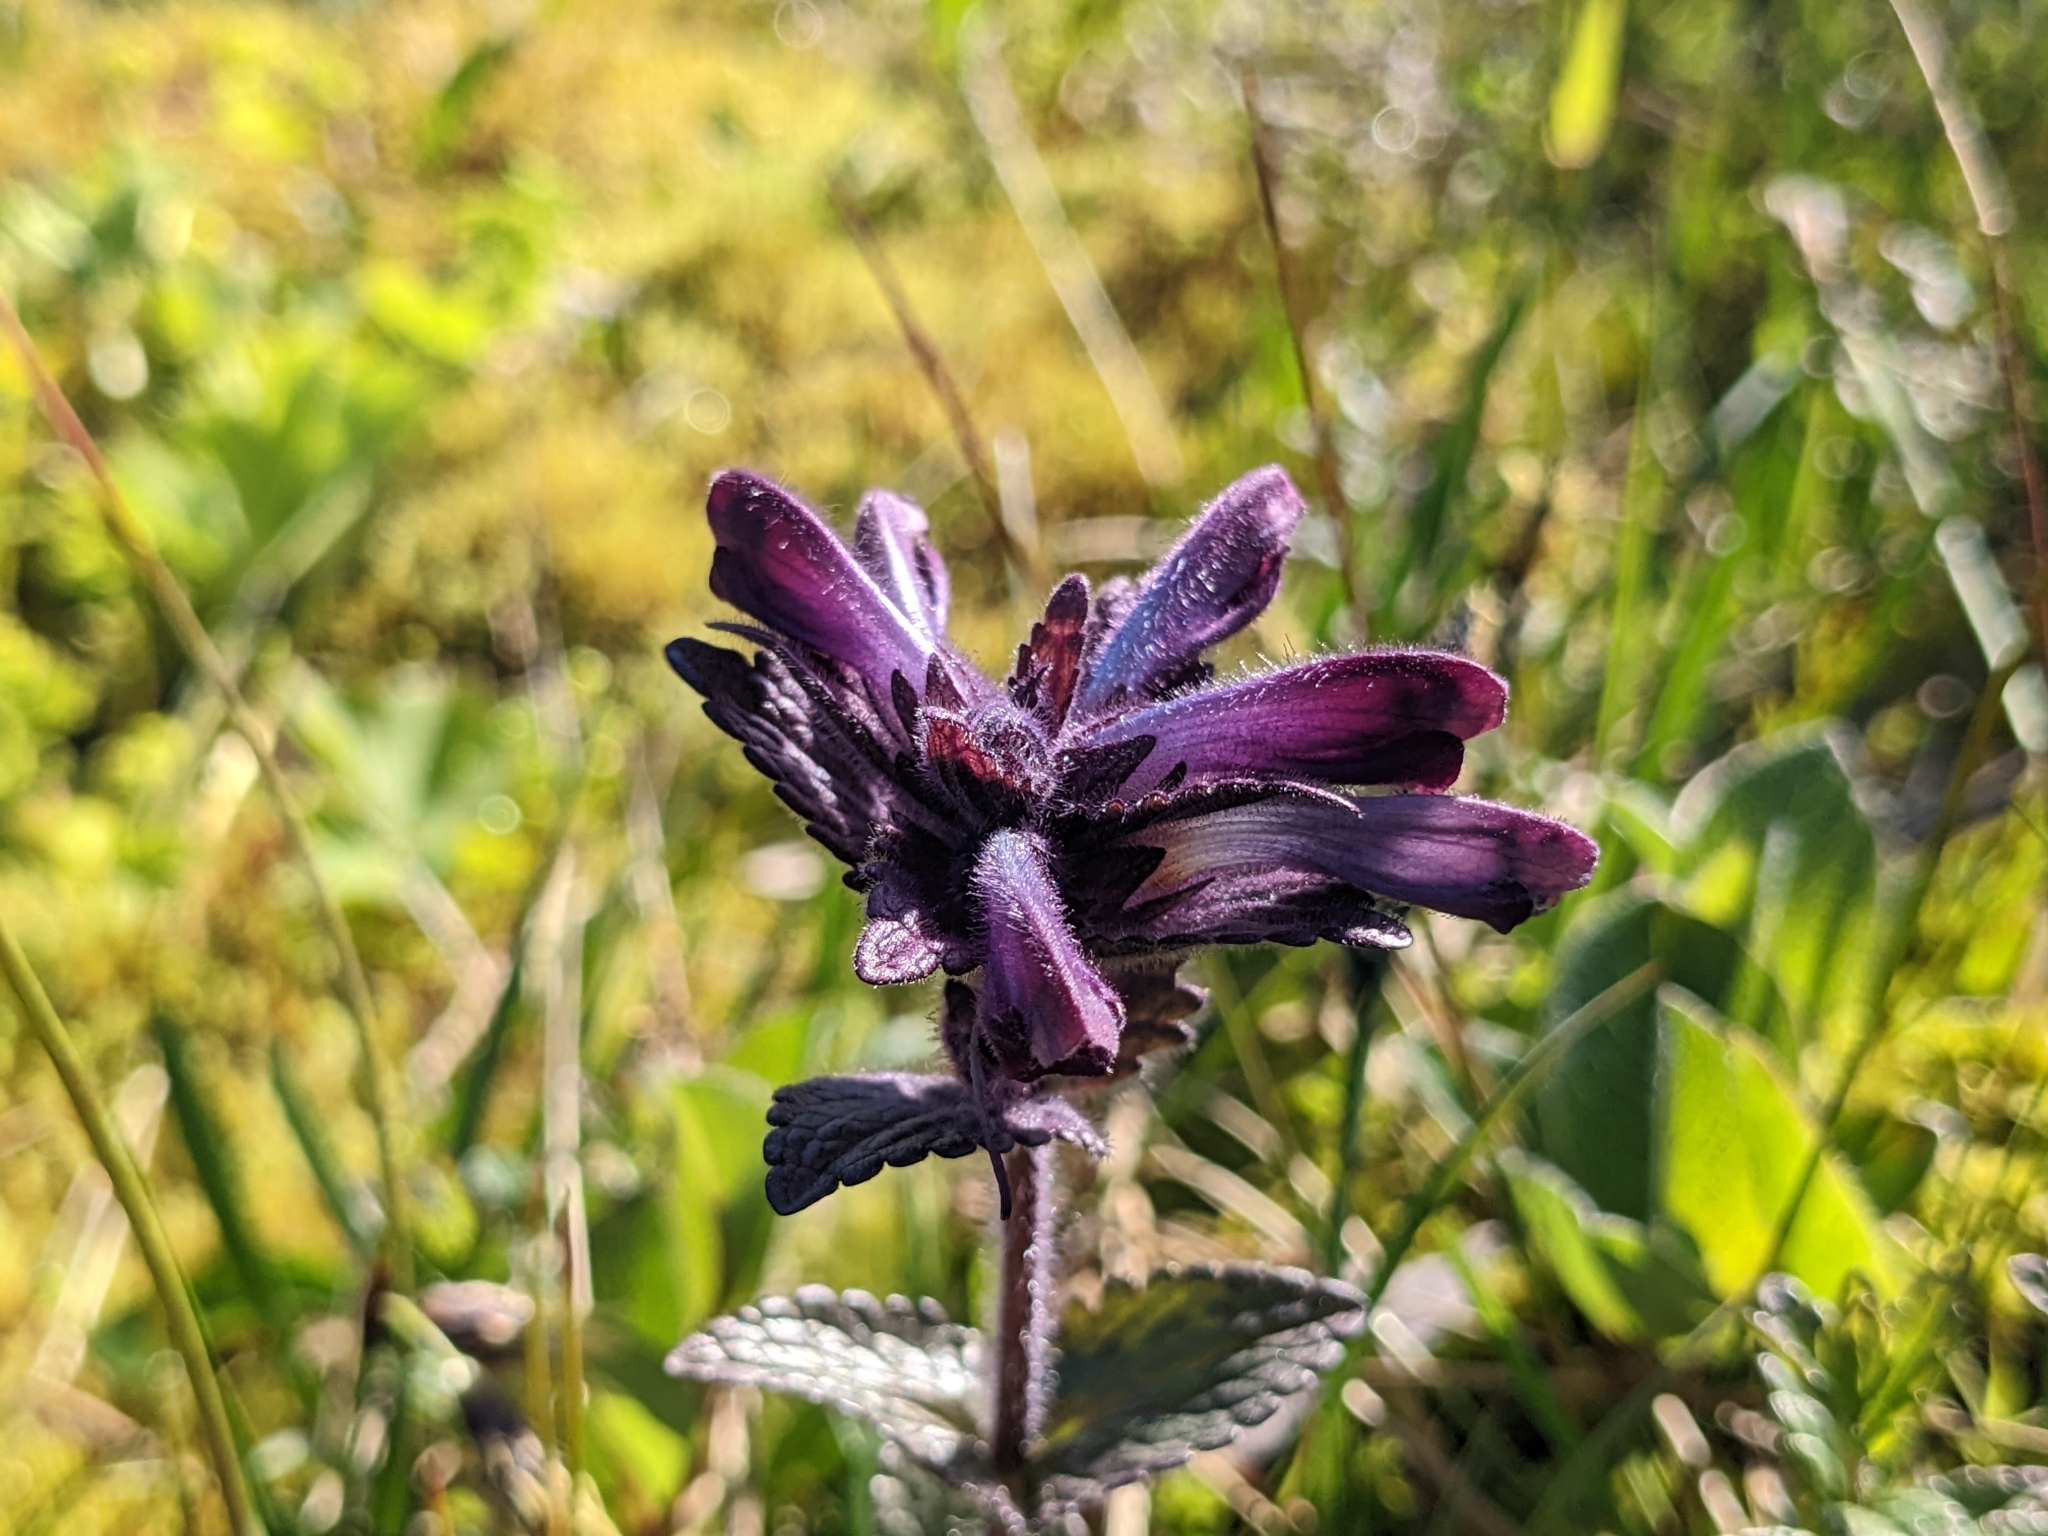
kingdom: Plantae
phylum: Tracheophyta
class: Magnoliopsida
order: Lamiales
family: Orobanchaceae
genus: Bartsia
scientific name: Bartsia alpina
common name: Alpine bartsia
